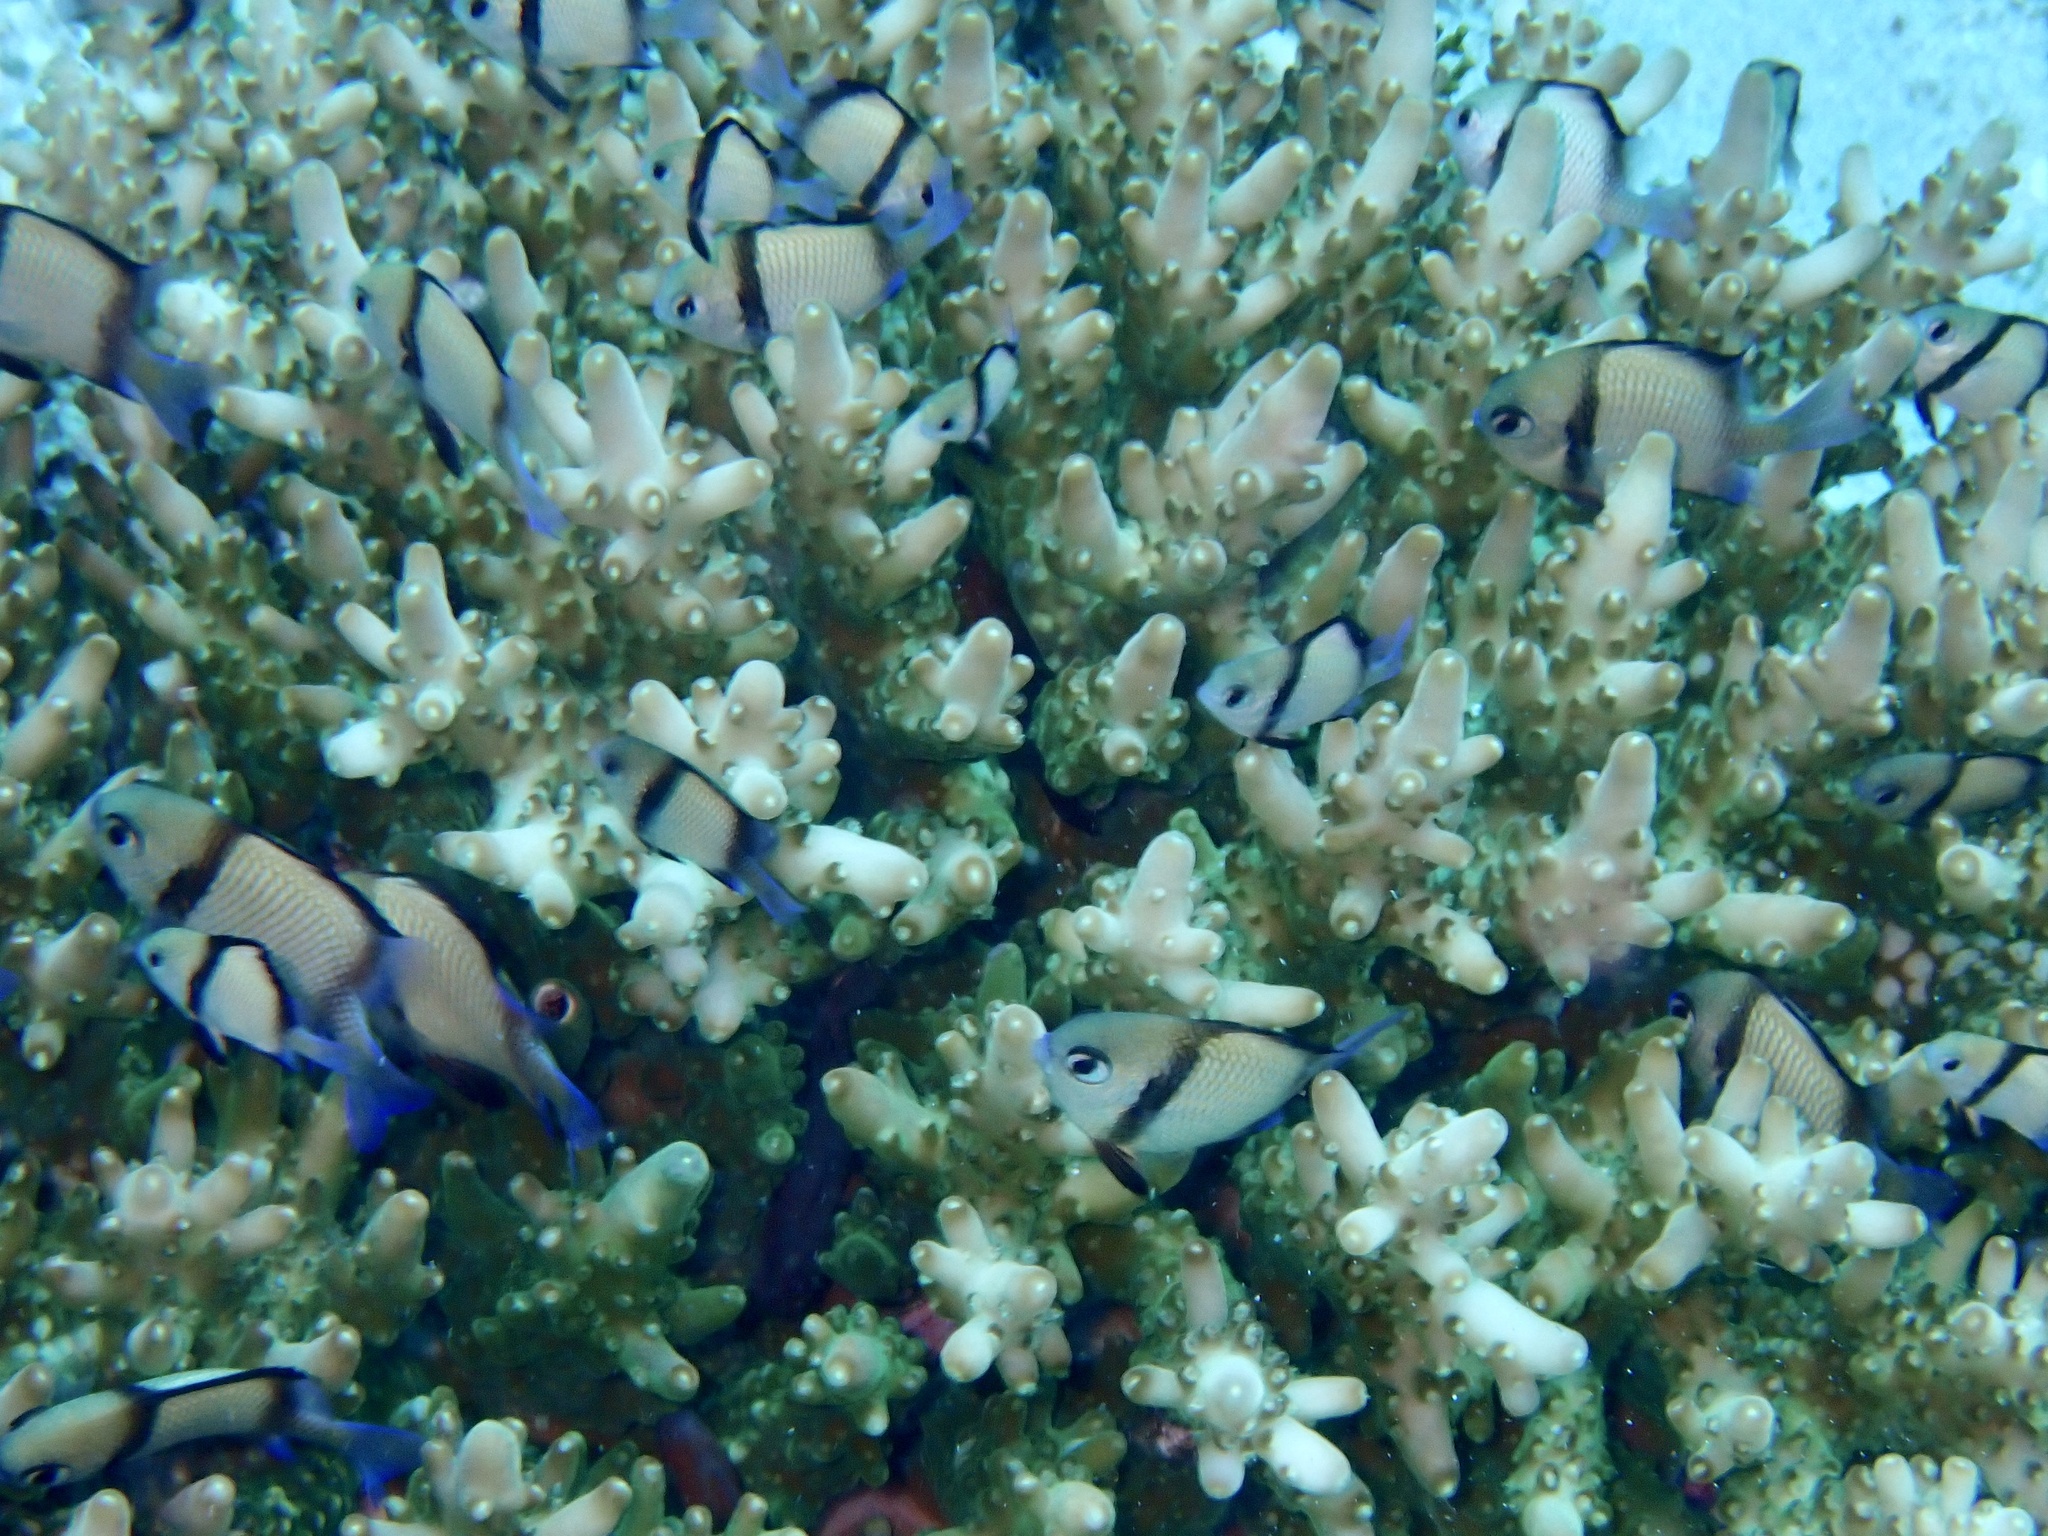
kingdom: Animalia
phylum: Chordata
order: Perciformes
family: Pomacentridae
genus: Dascyllus
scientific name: Dascyllus reticulatus
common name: Reticulated dascyllus
